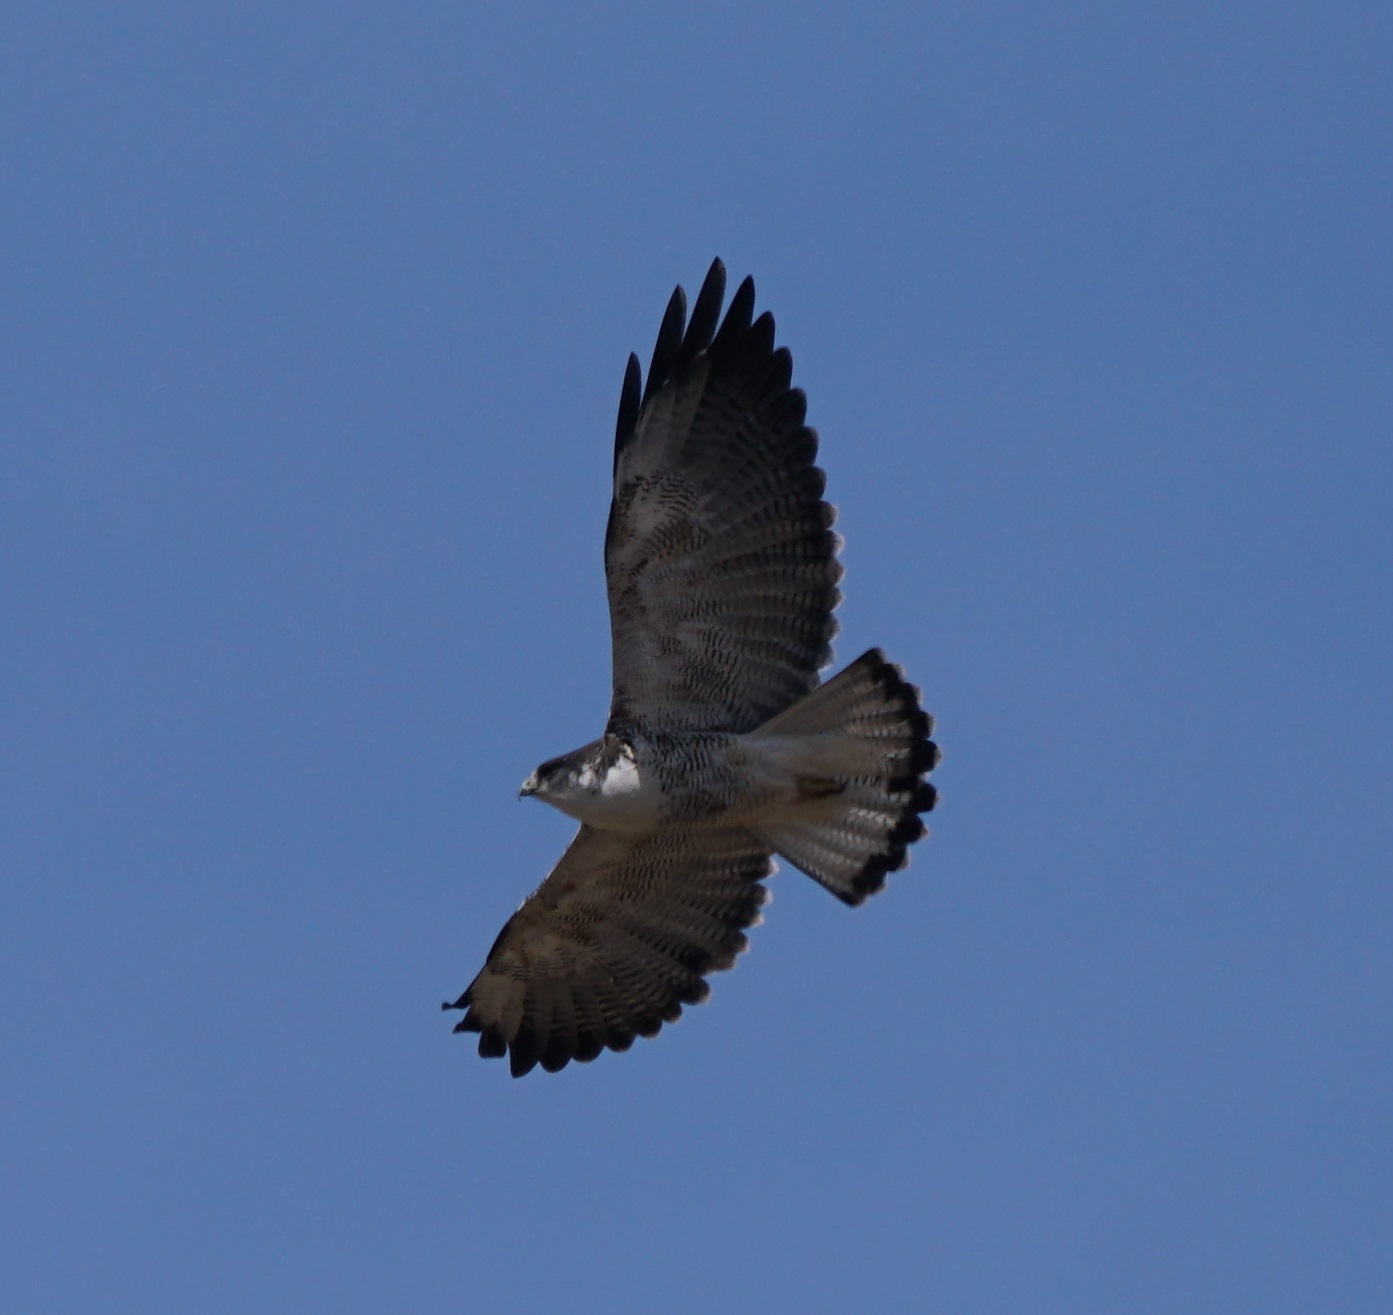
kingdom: Animalia
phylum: Chordata
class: Aves
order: Accipitriformes
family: Accipitridae
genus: Buteo
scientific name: Buteo polyosoma
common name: Variable hawk
